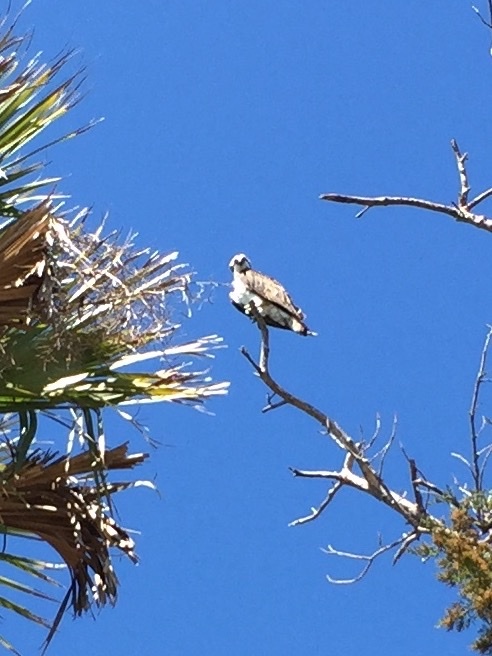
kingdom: Animalia
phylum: Chordata
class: Aves
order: Accipitriformes
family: Pandionidae
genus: Pandion
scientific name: Pandion haliaetus
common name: Osprey
